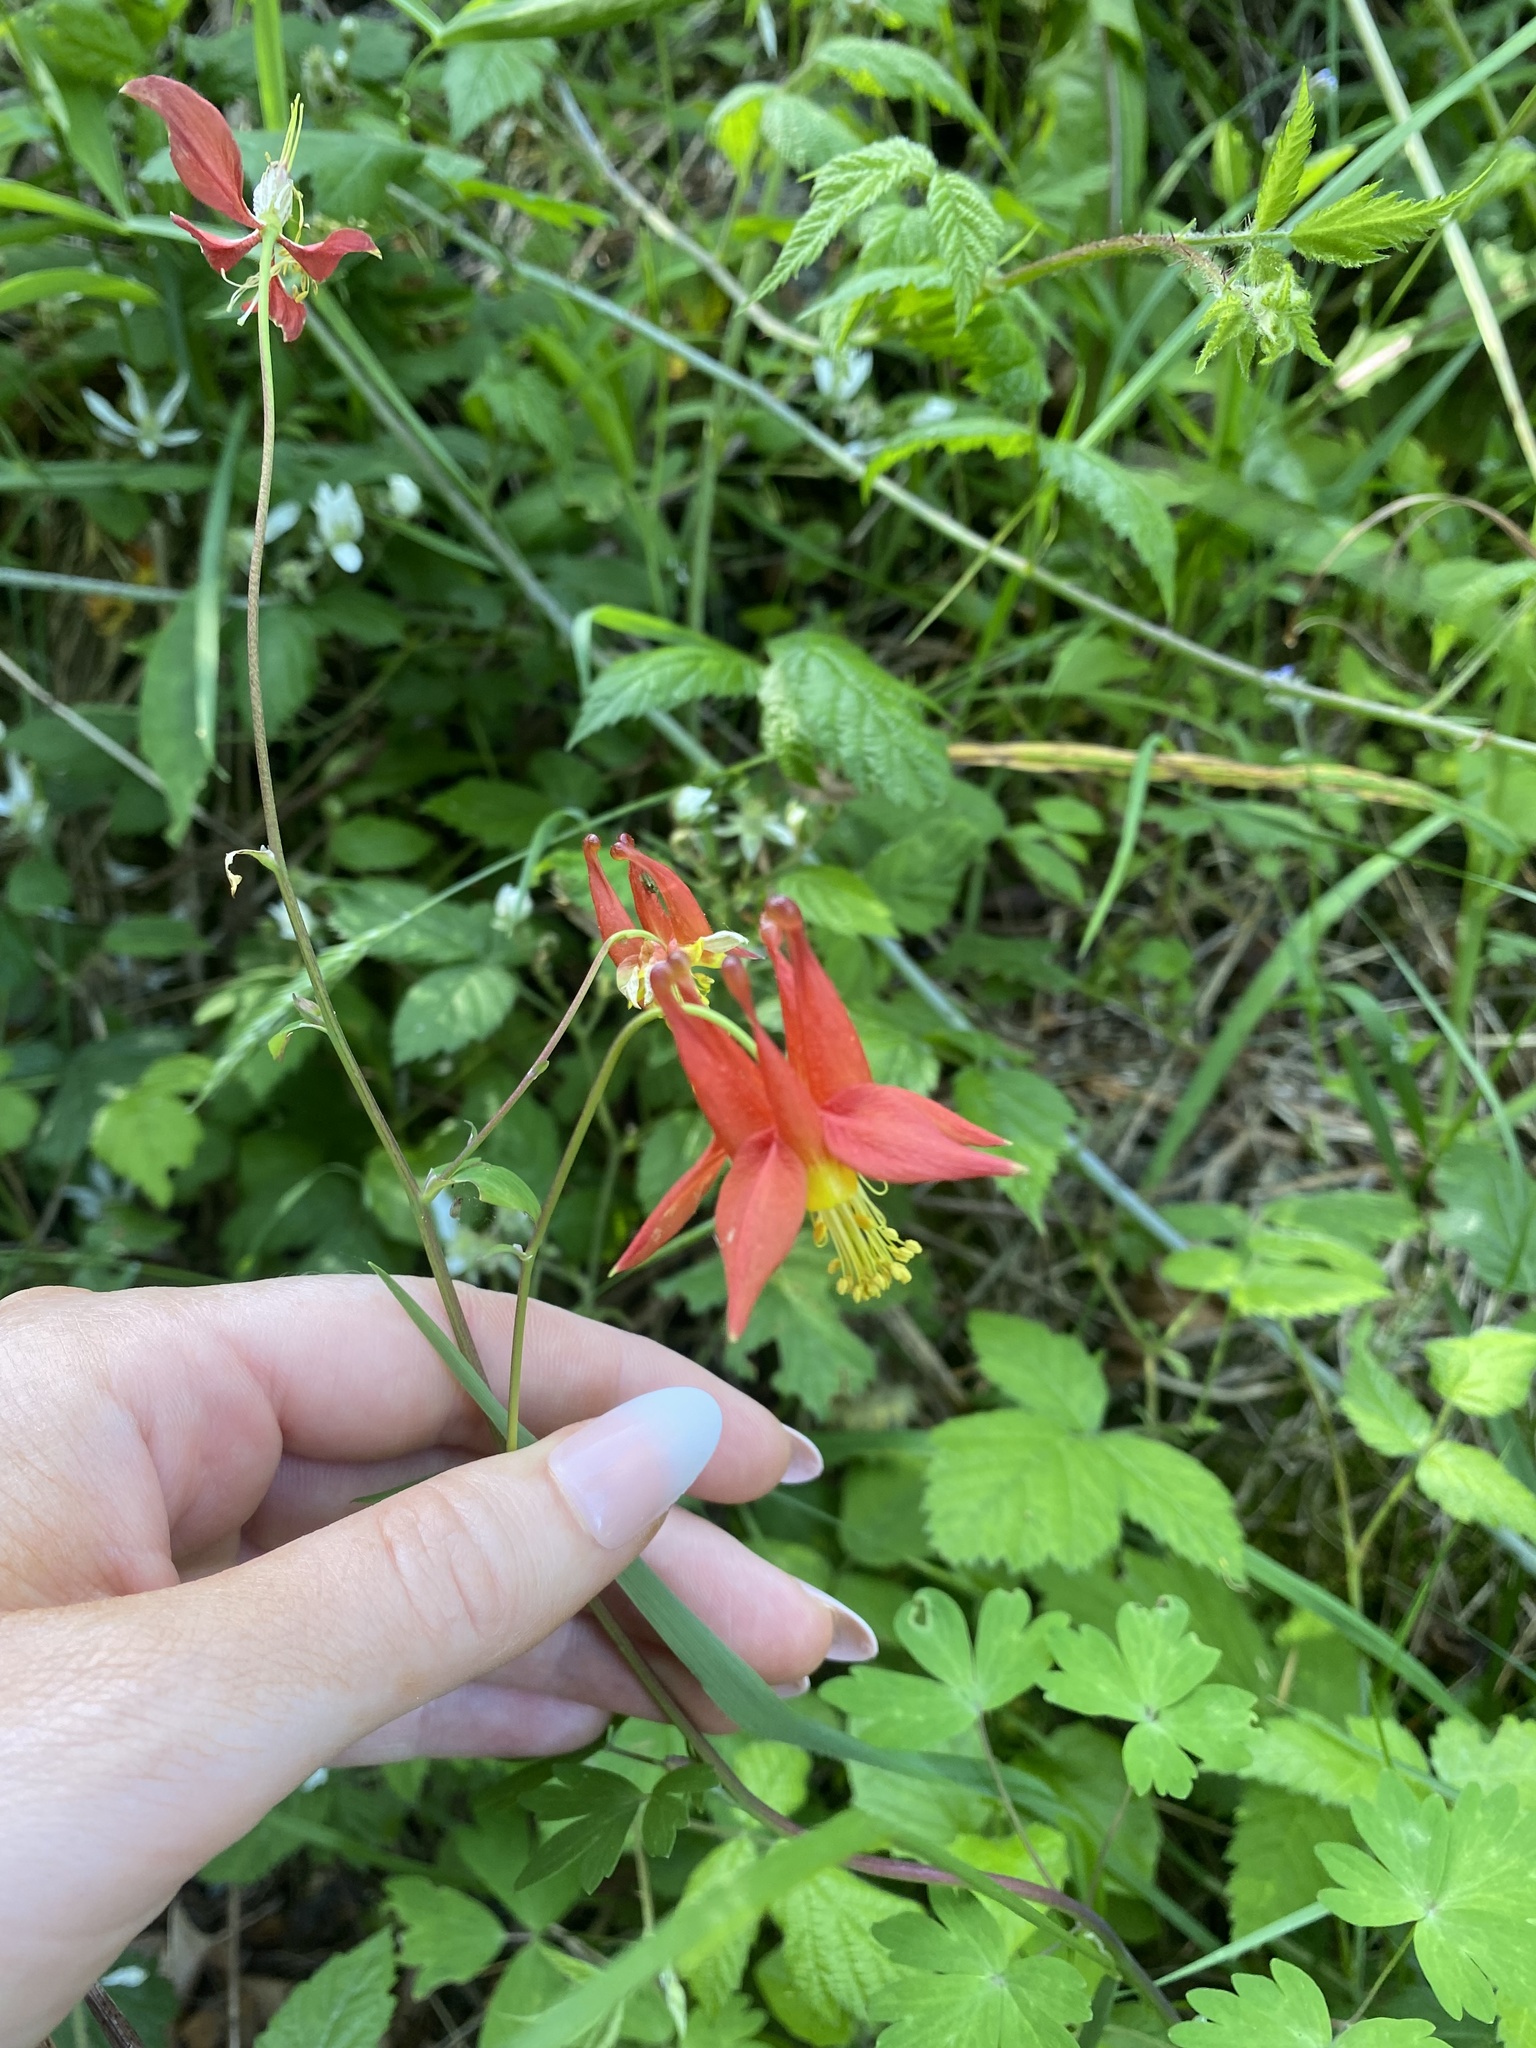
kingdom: Plantae
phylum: Tracheophyta
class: Magnoliopsida
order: Ranunculales
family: Ranunculaceae
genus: Aquilegia
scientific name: Aquilegia formosa
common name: Sitka columbine
